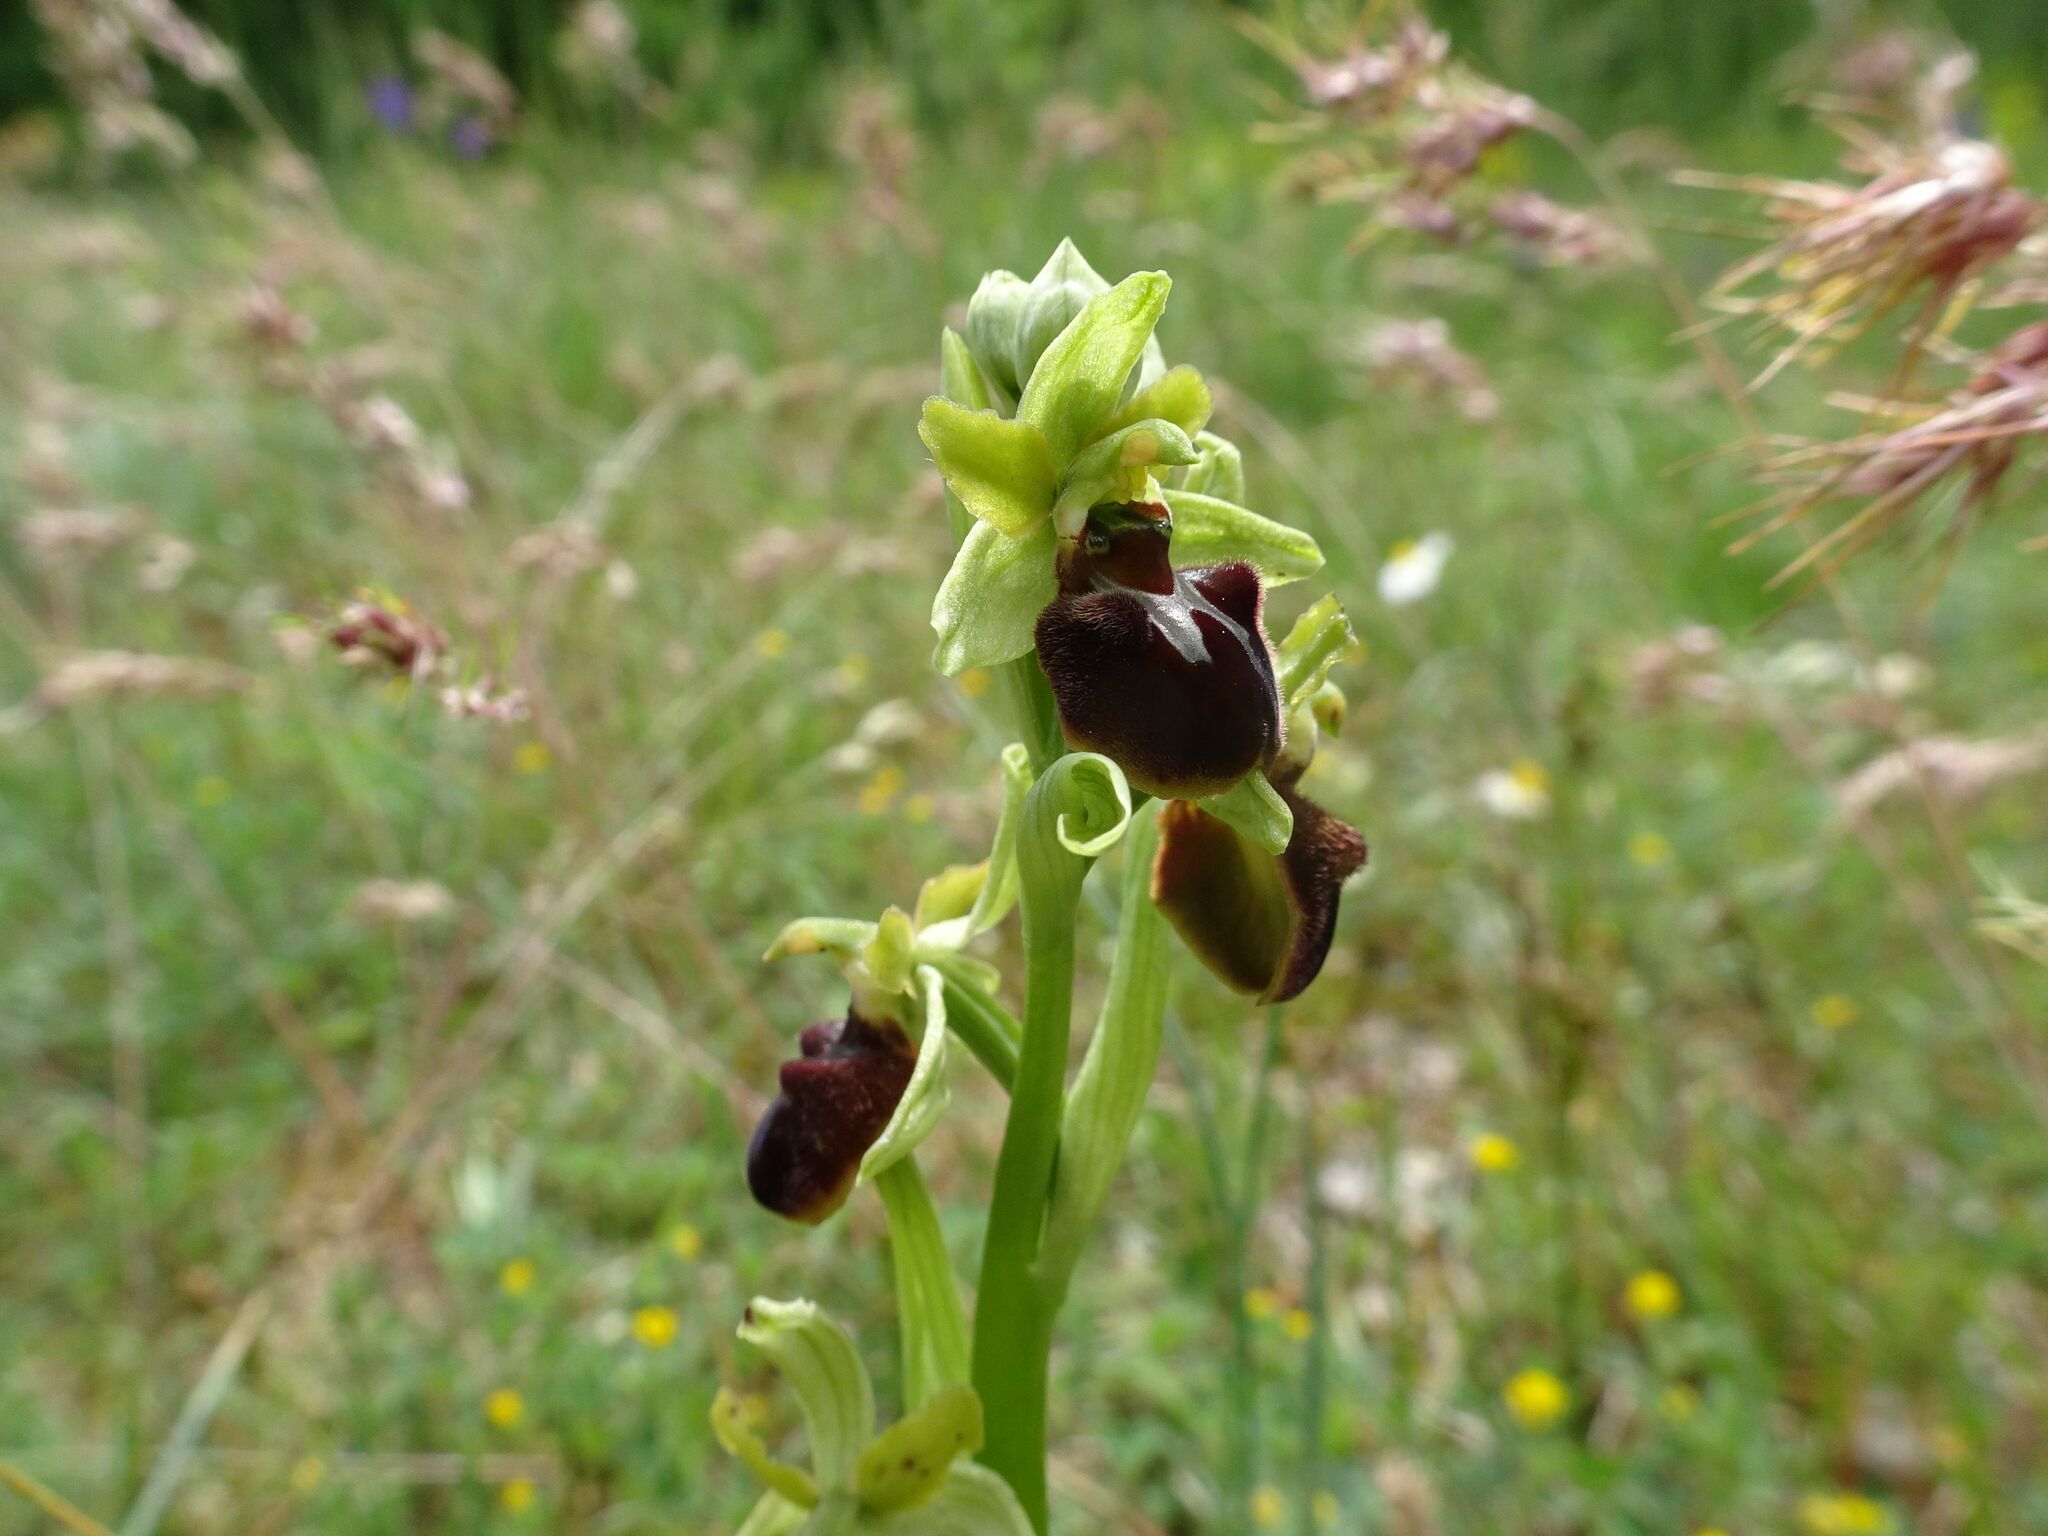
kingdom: Plantae
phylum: Tracheophyta
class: Liliopsida
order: Asparagales
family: Orchidaceae
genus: Ophrys
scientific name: Ophrys sphegodes
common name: Early spider-orchid
